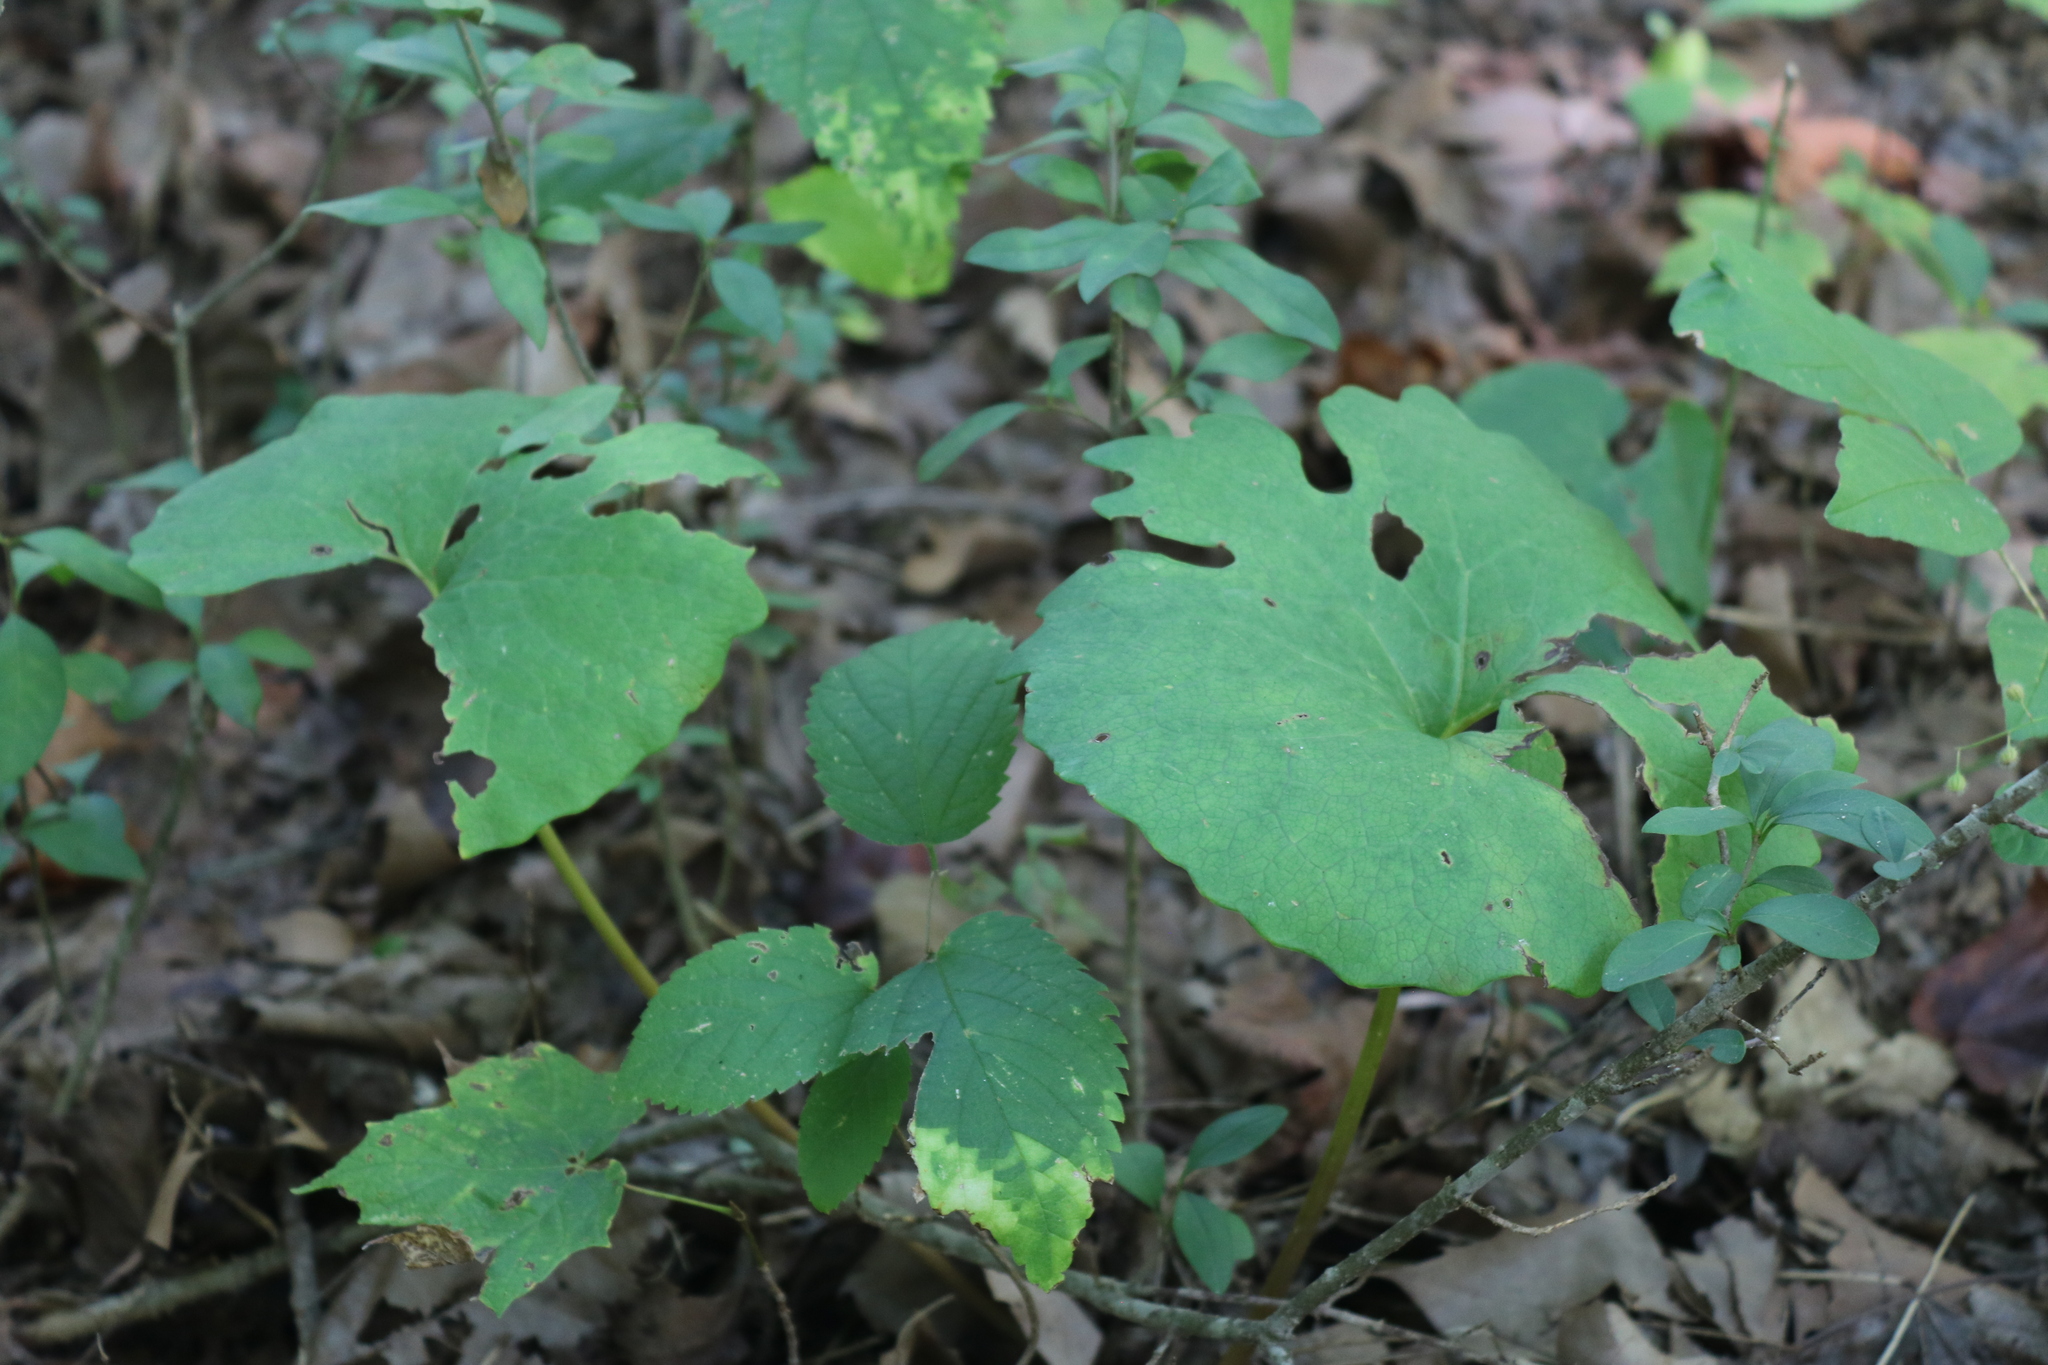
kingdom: Plantae
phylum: Tracheophyta
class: Magnoliopsida
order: Ranunculales
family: Papaveraceae
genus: Sanguinaria
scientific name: Sanguinaria canadensis
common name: Bloodroot
